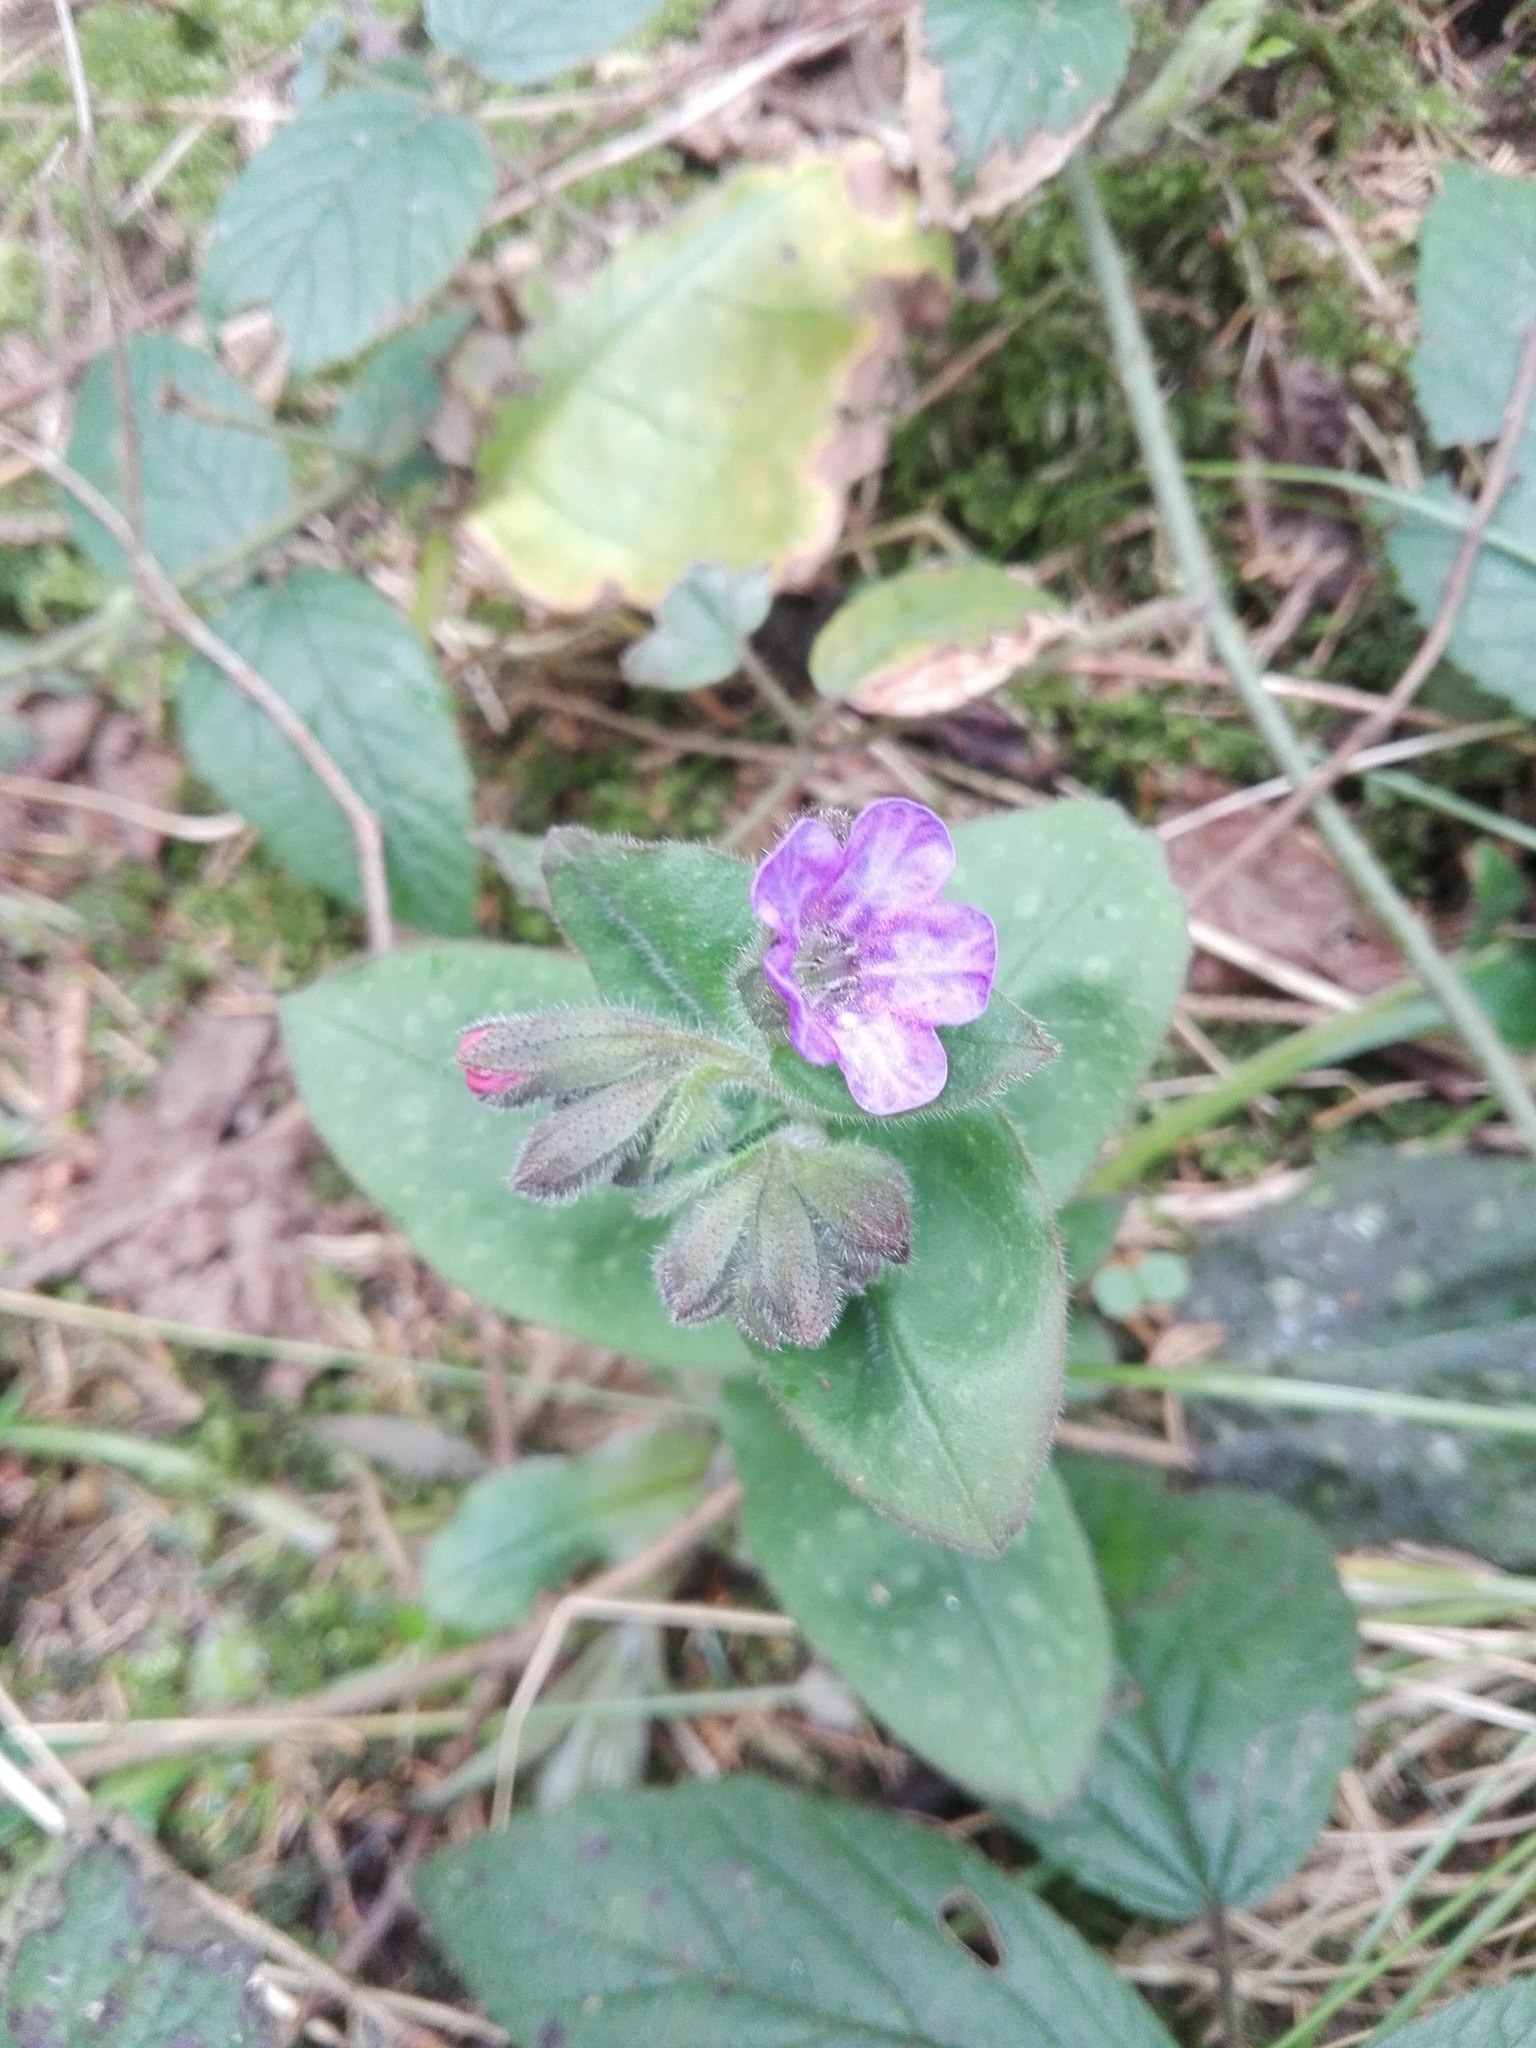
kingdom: Plantae
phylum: Tracheophyta
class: Magnoliopsida
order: Boraginales
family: Boraginaceae
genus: Pulmonaria
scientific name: Pulmonaria officinalis
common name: Lungwort
